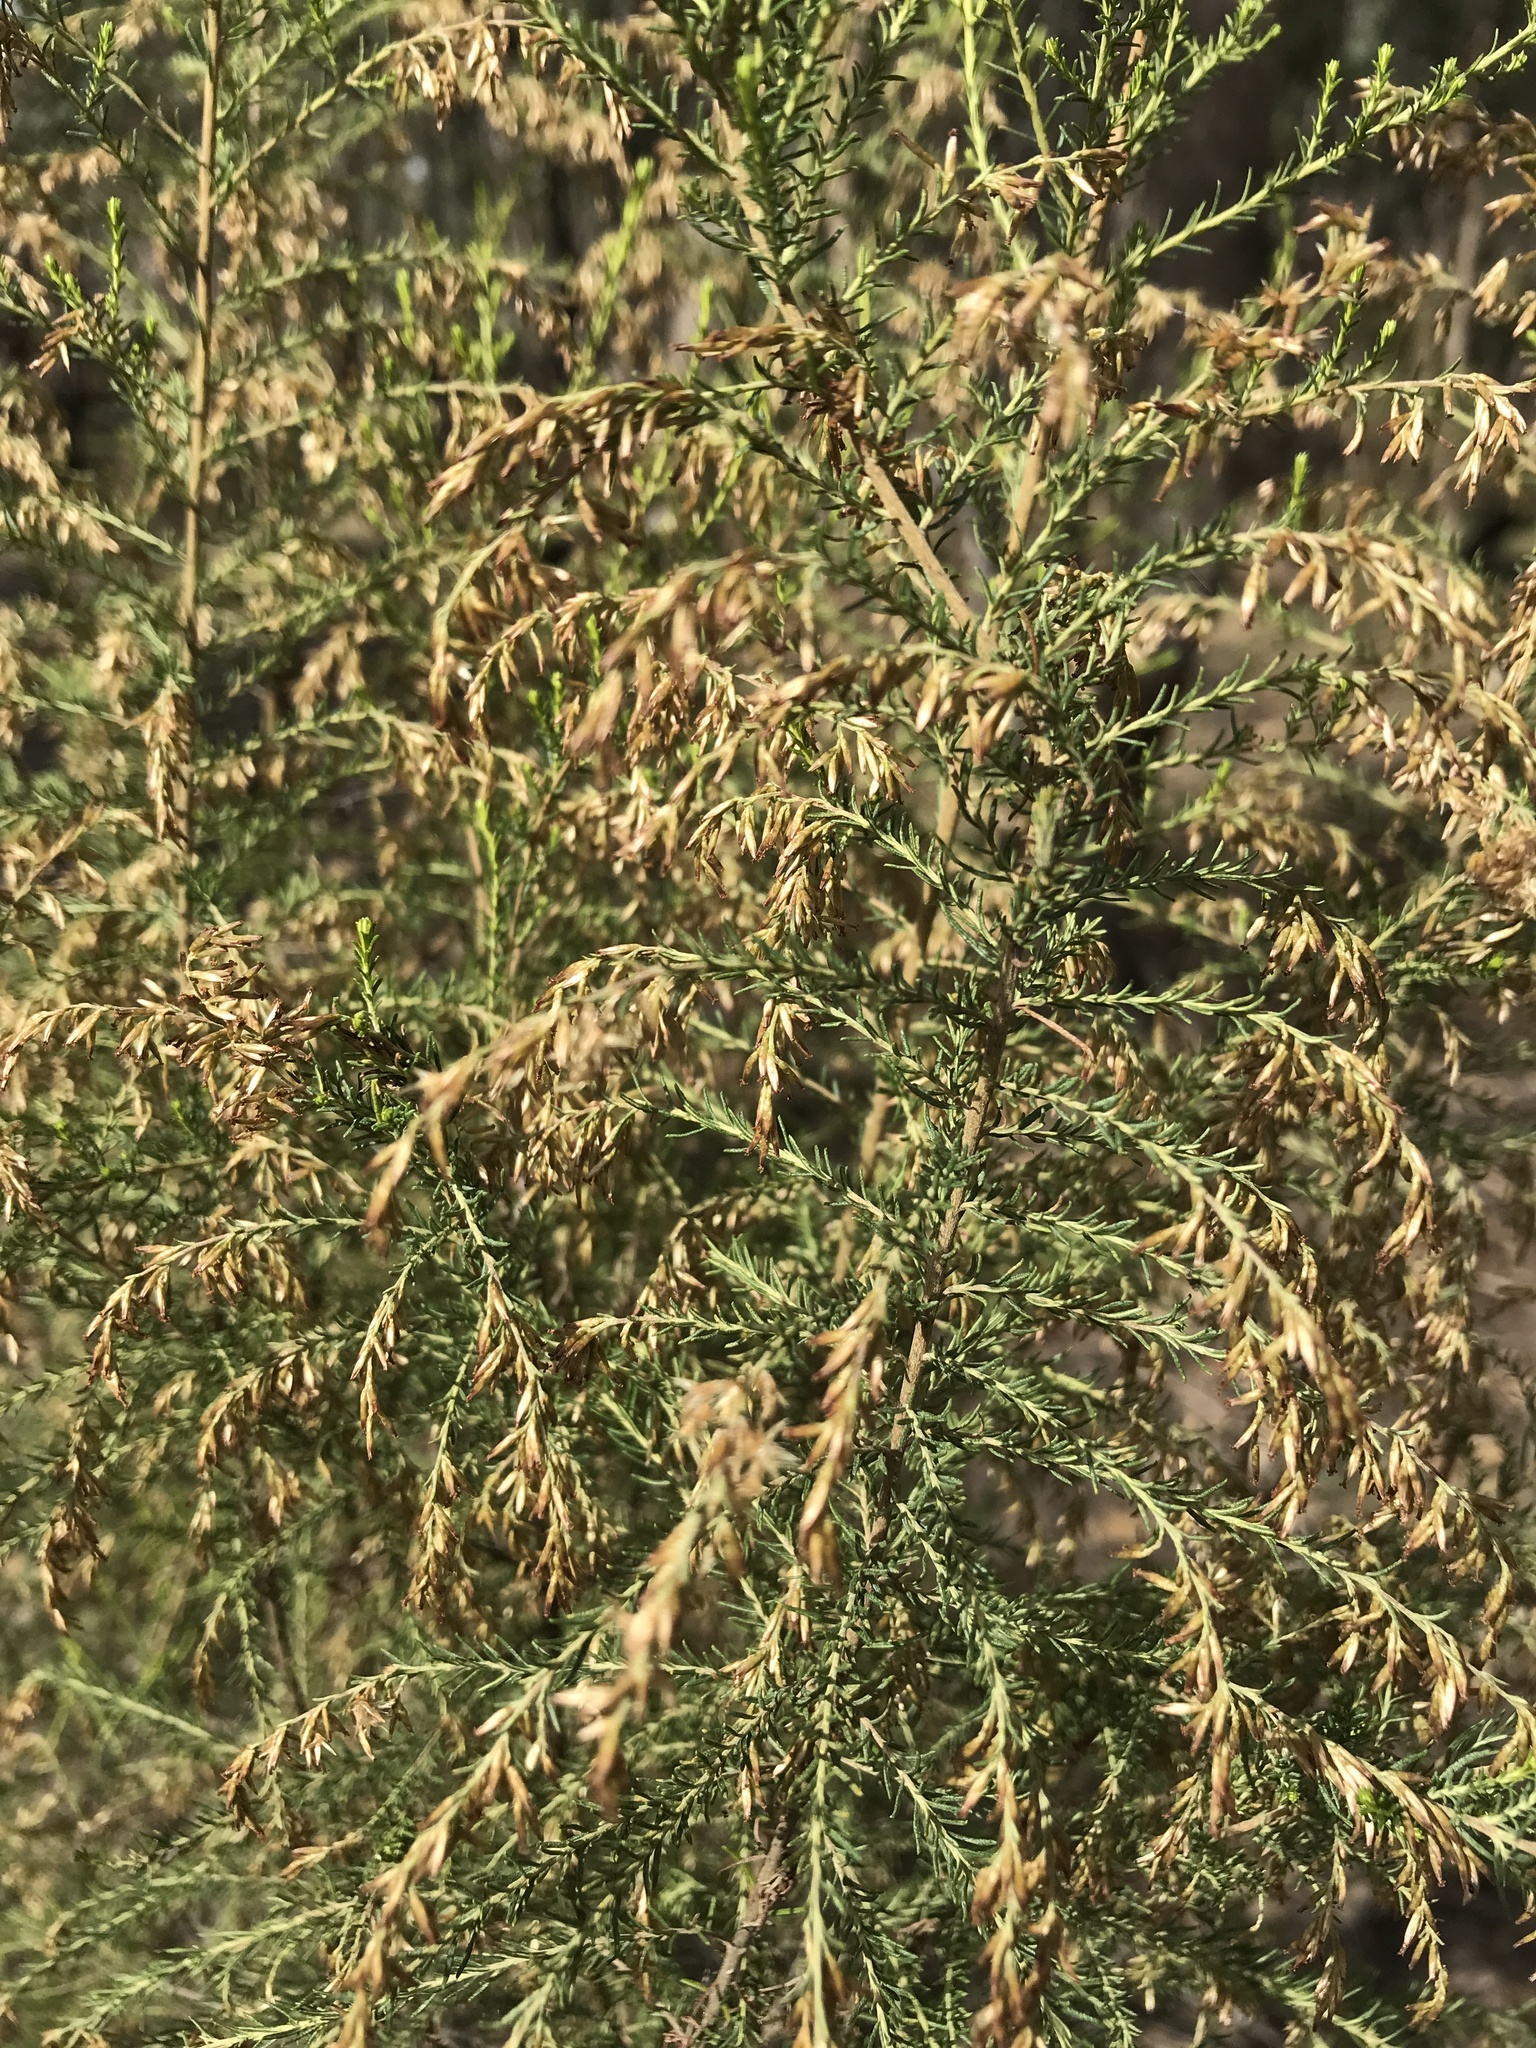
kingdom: Plantae
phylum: Tracheophyta
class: Magnoliopsida
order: Asterales
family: Asteraceae
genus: Cassinia
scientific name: Cassinia sifton
